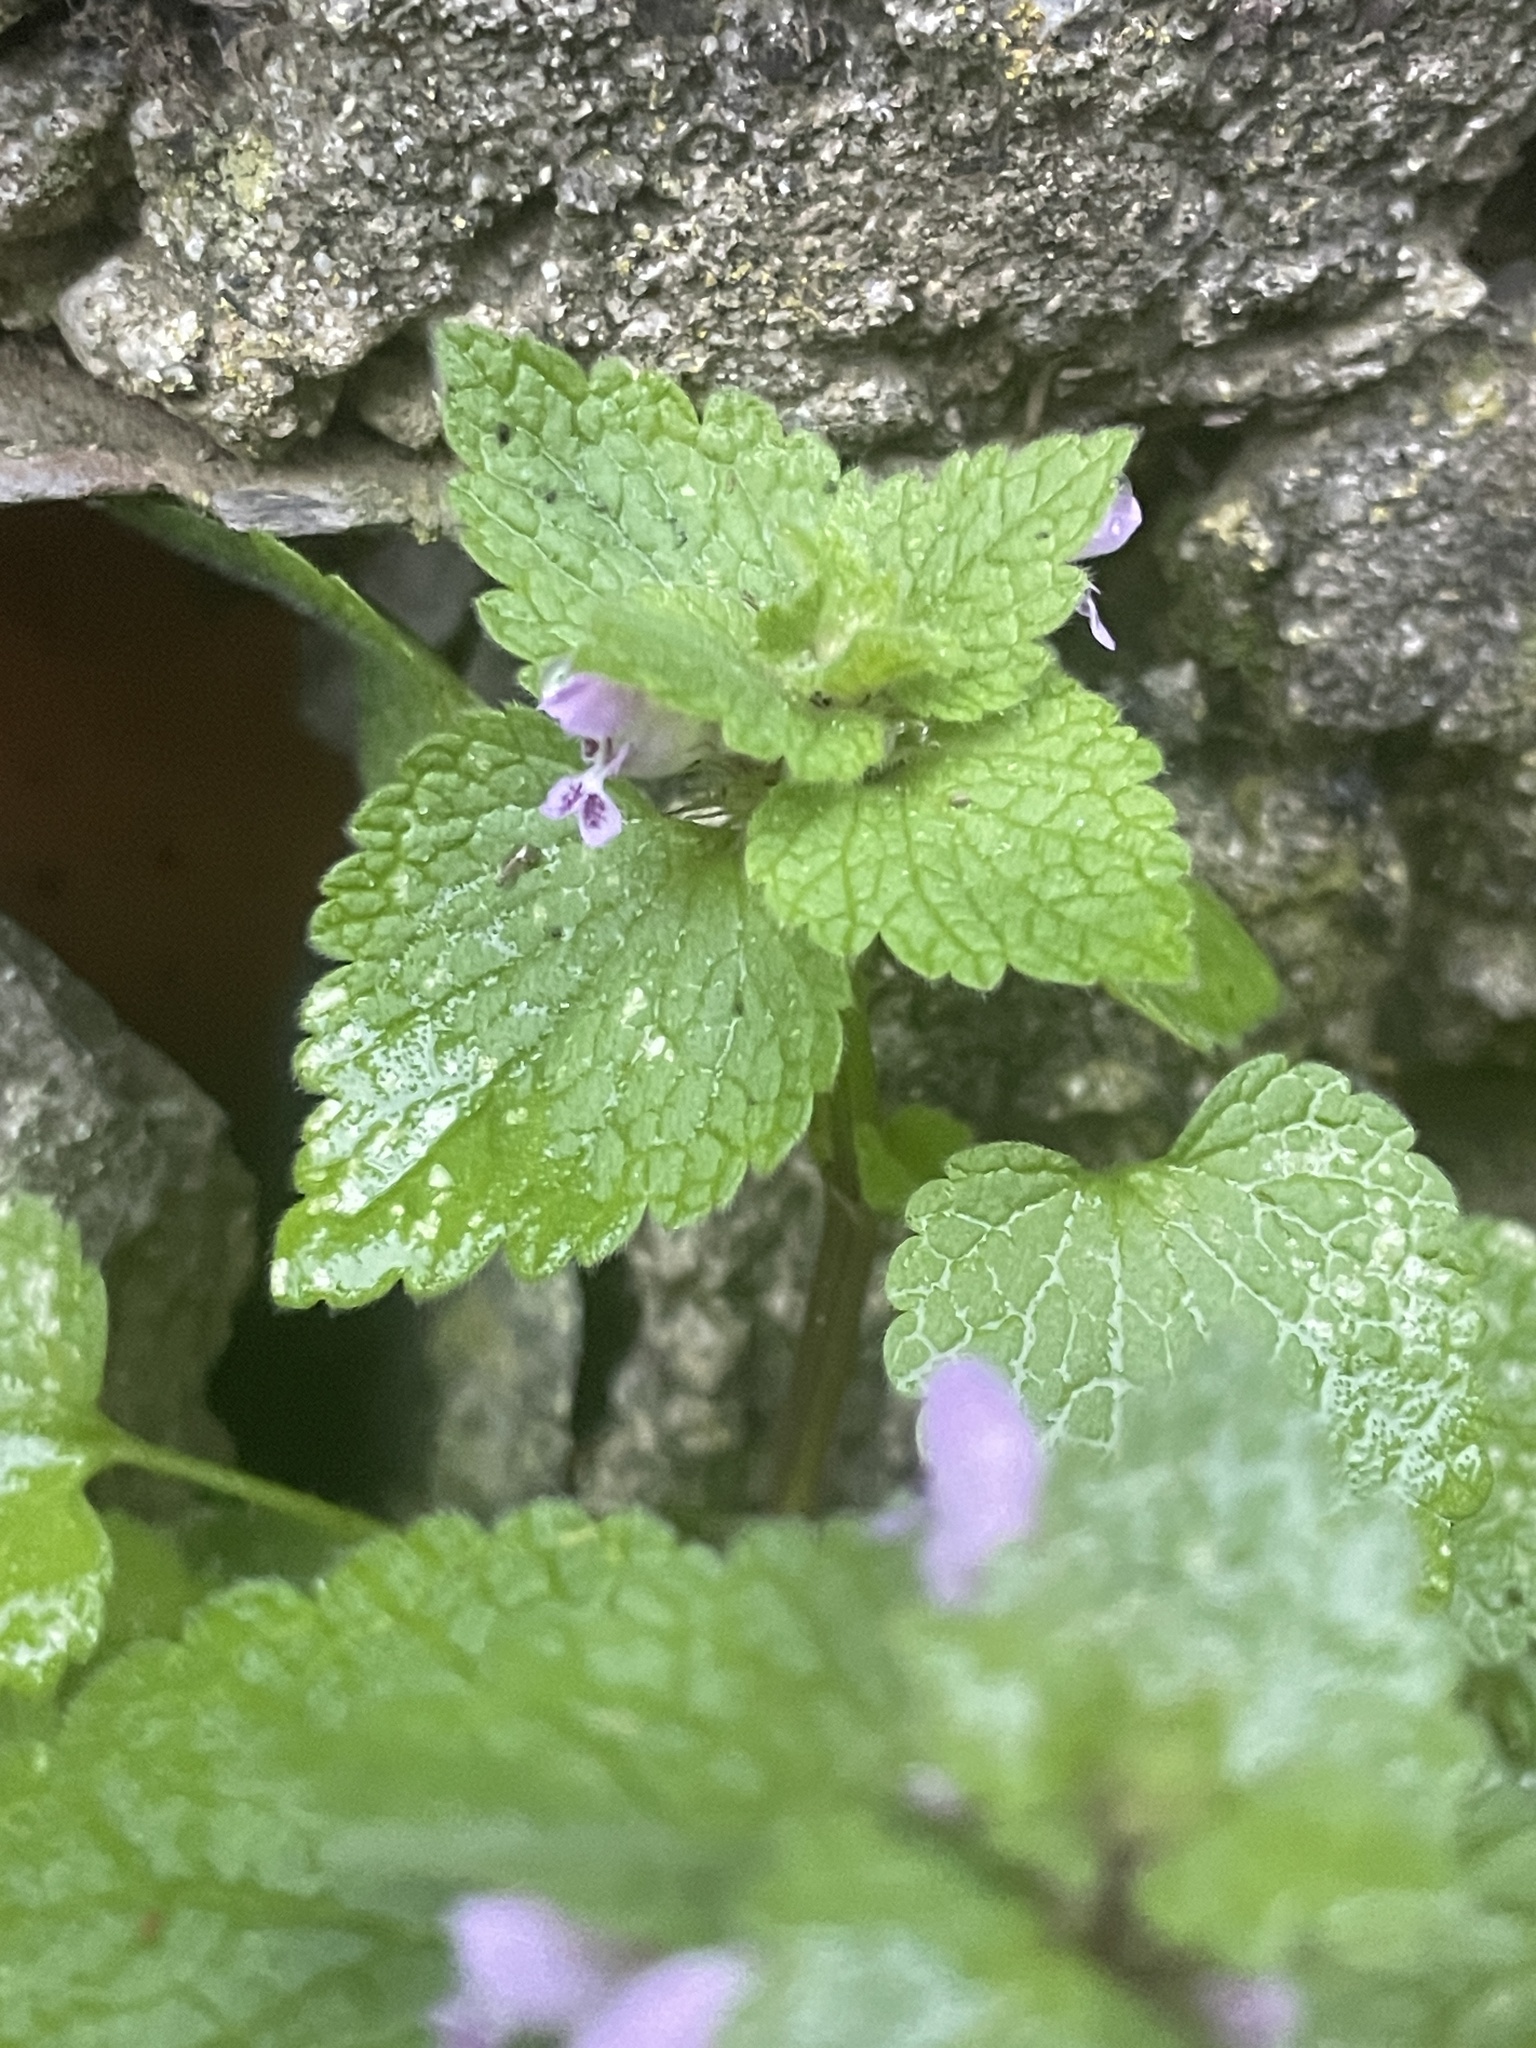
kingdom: Plantae
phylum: Tracheophyta
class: Magnoliopsida
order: Lamiales
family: Lamiaceae
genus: Lamium
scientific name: Lamium purpureum
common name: Red dead-nettle
